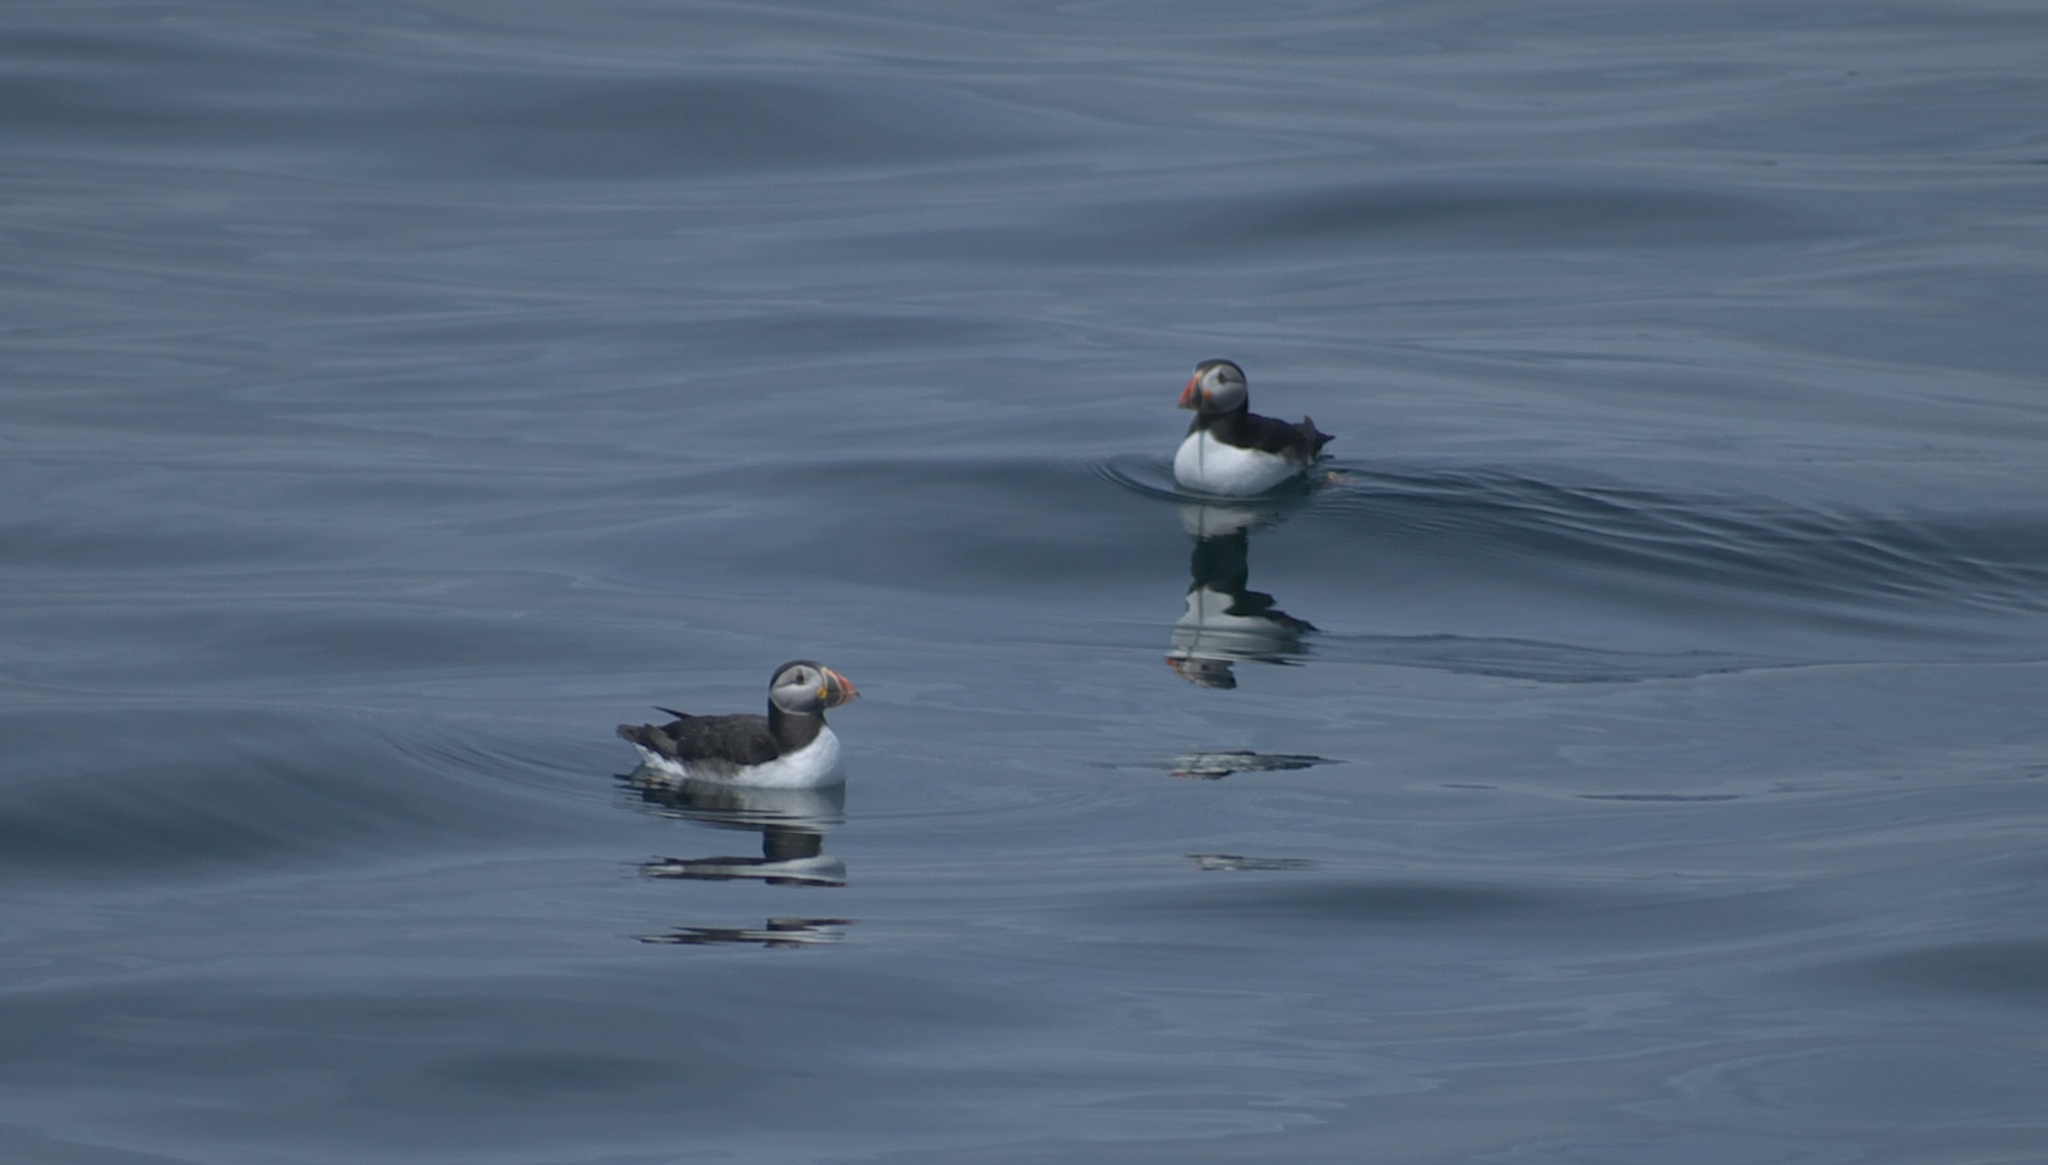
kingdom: Animalia
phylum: Chordata
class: Aves
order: Charadriiformes
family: Alcidae
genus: Fratercula
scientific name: Fratercula arctica
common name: Atlantic puffin
